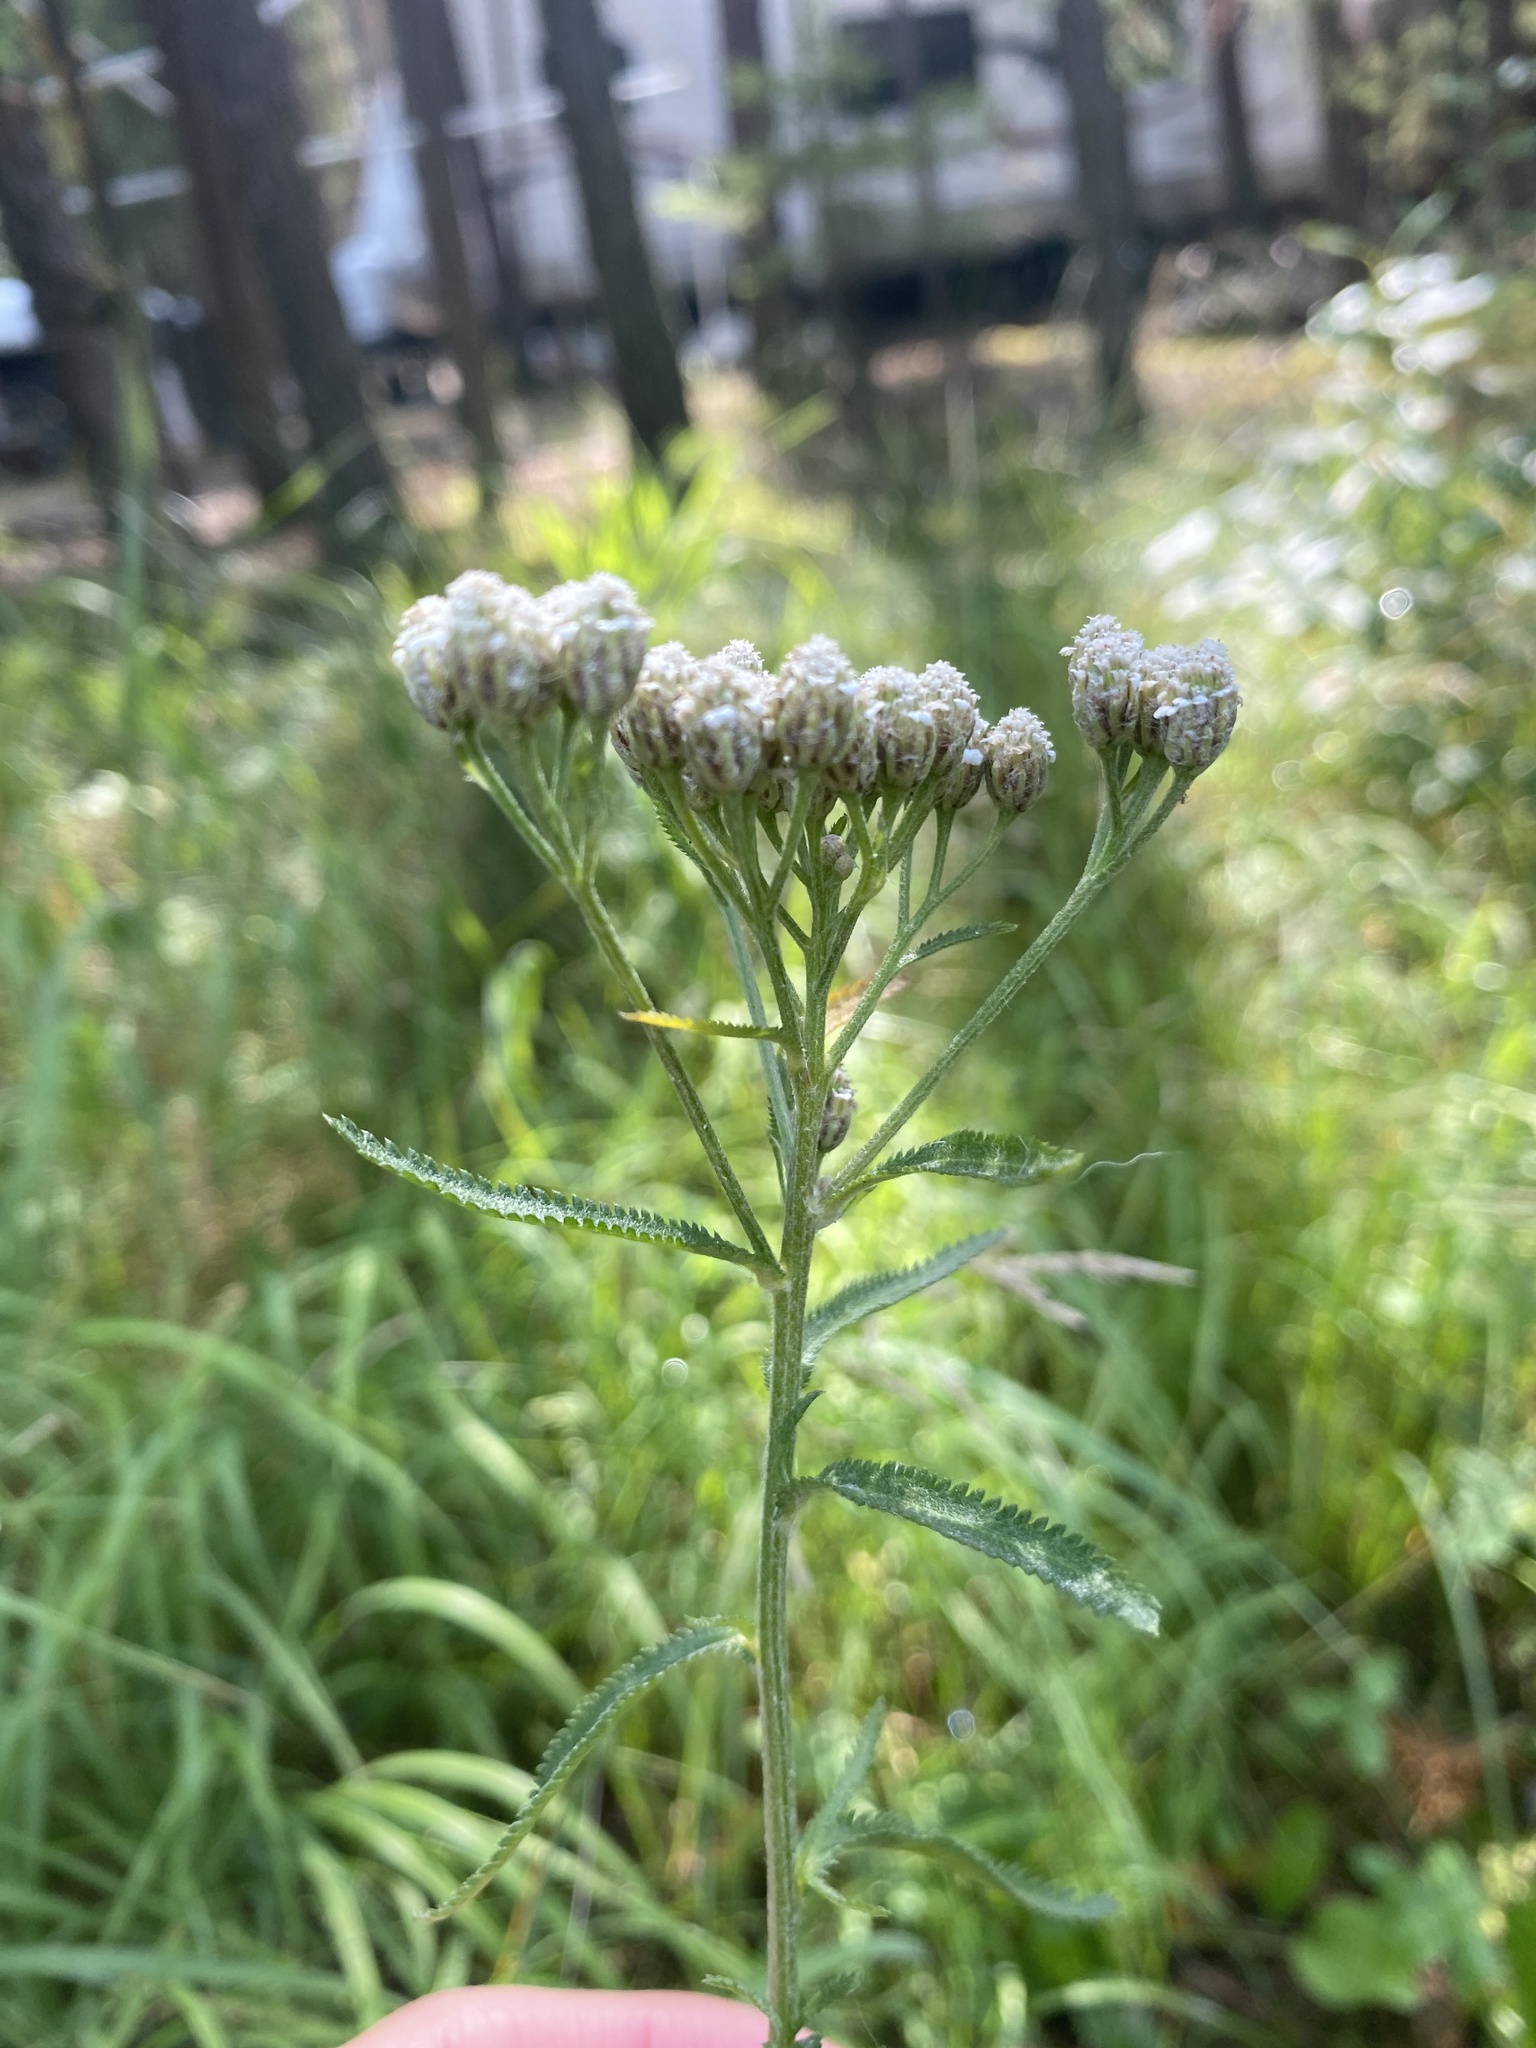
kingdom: Plantae
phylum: Tracheophyta
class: Magnoliopsida
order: Asterales
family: Asteraceae
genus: Achillea
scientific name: Achillea alpina
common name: Siberian yarrow
